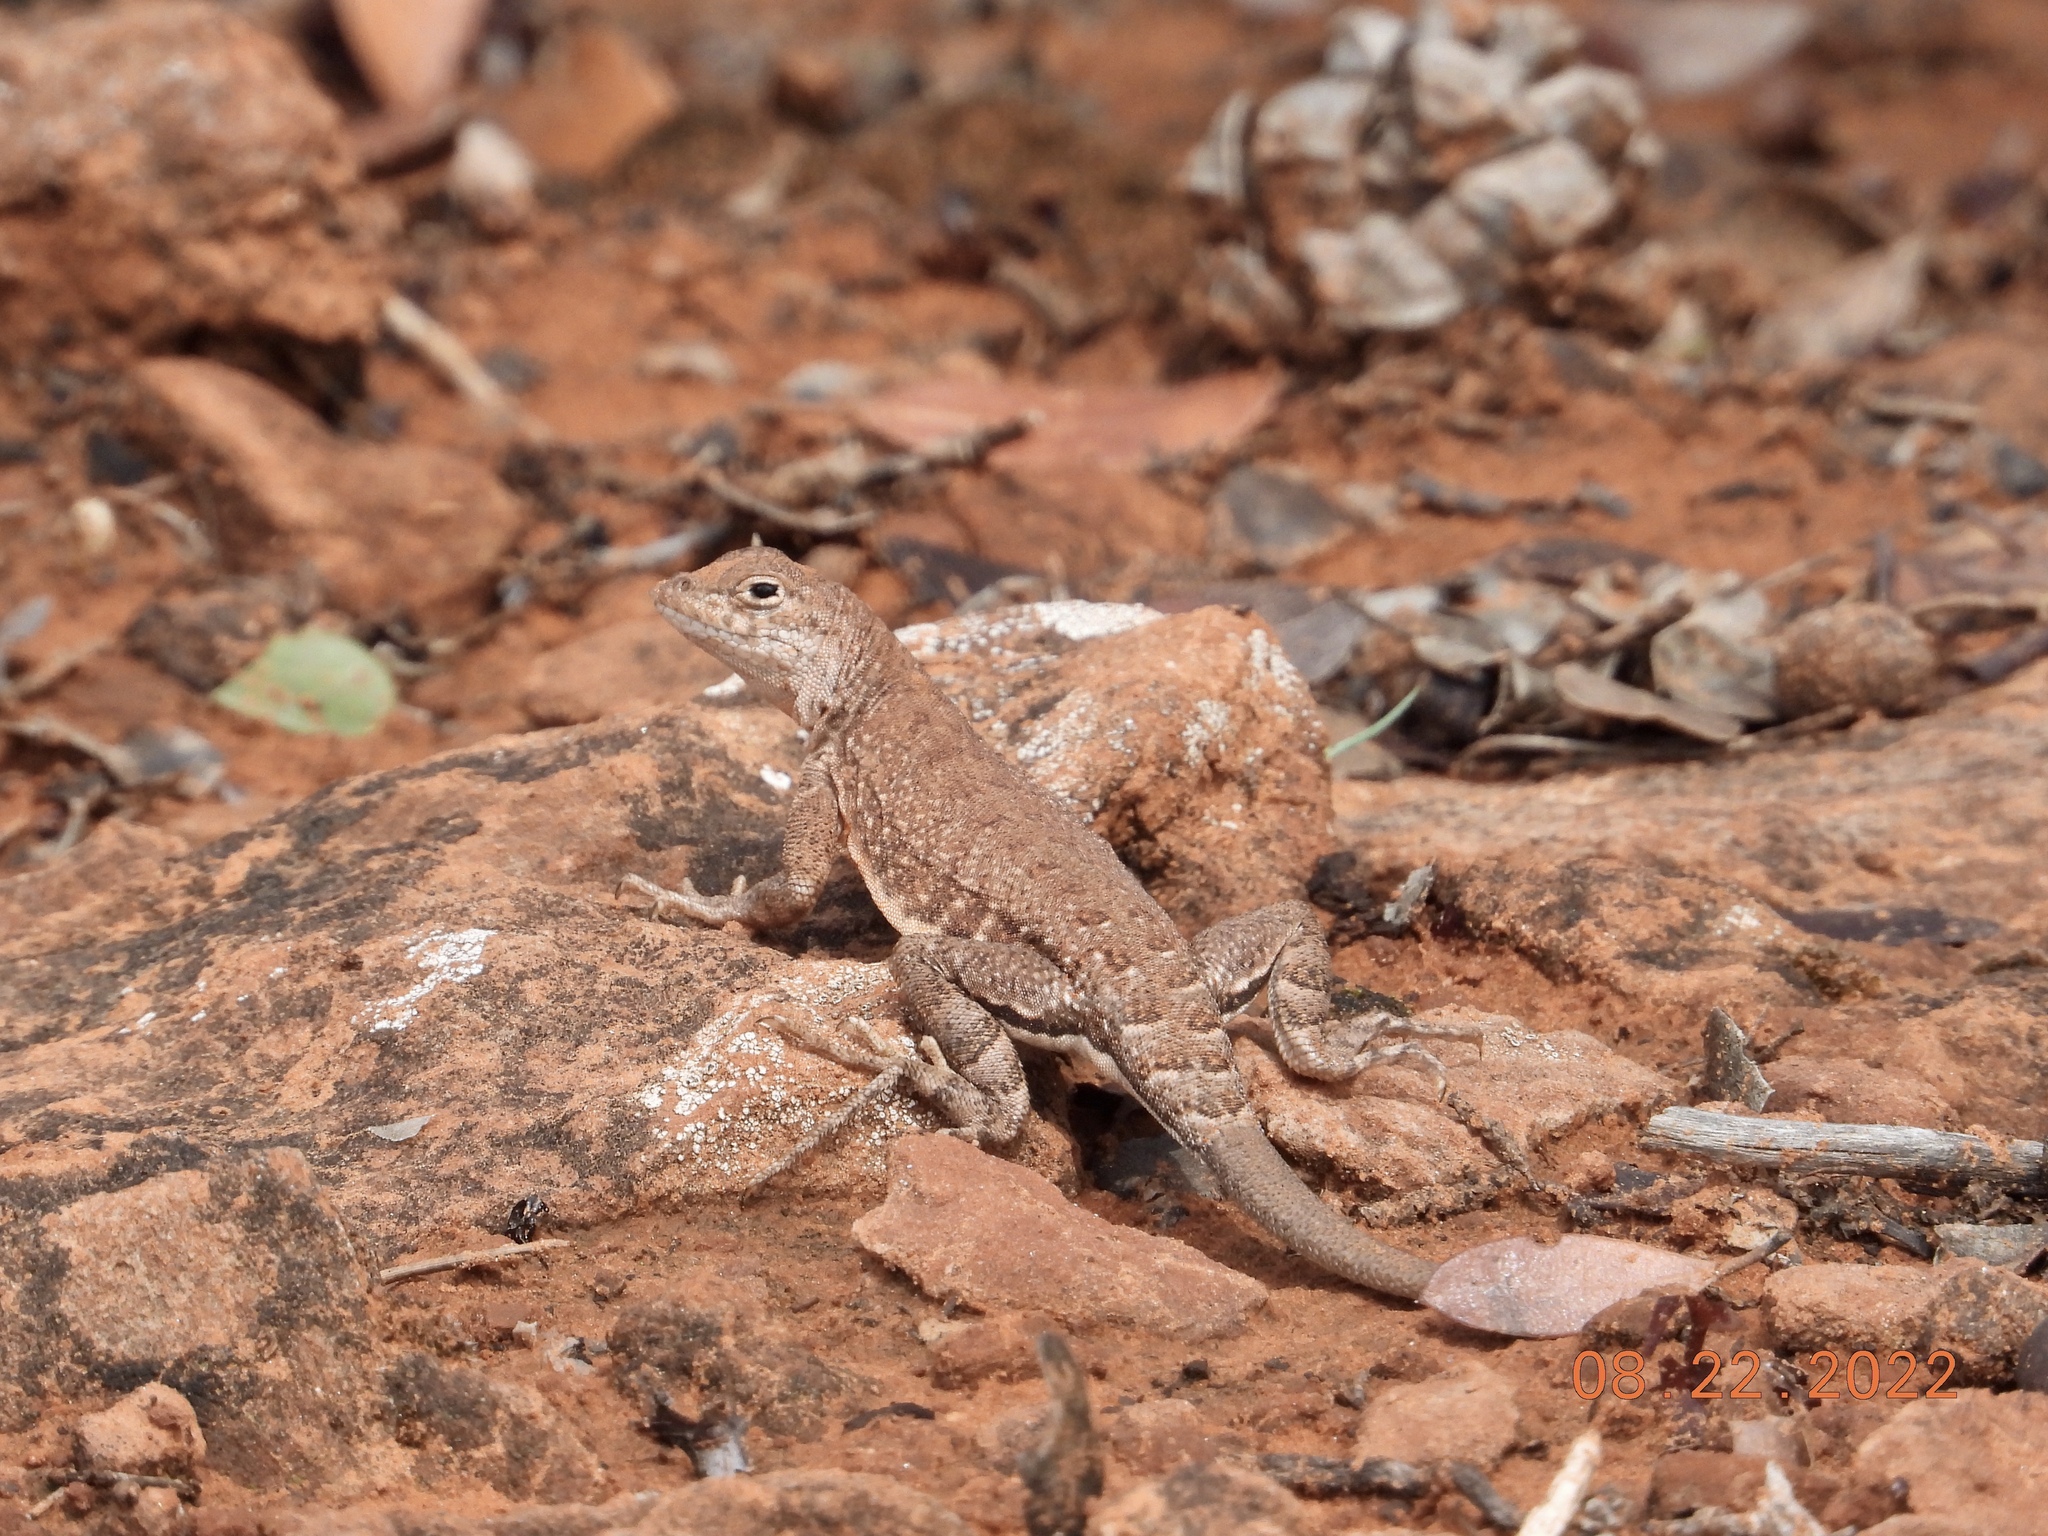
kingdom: Animalia
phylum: Chordata
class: Squamata
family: Phrynosomatidae
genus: Cophosaurus
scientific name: Cophosaurus texanus
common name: Greater earless lizard
